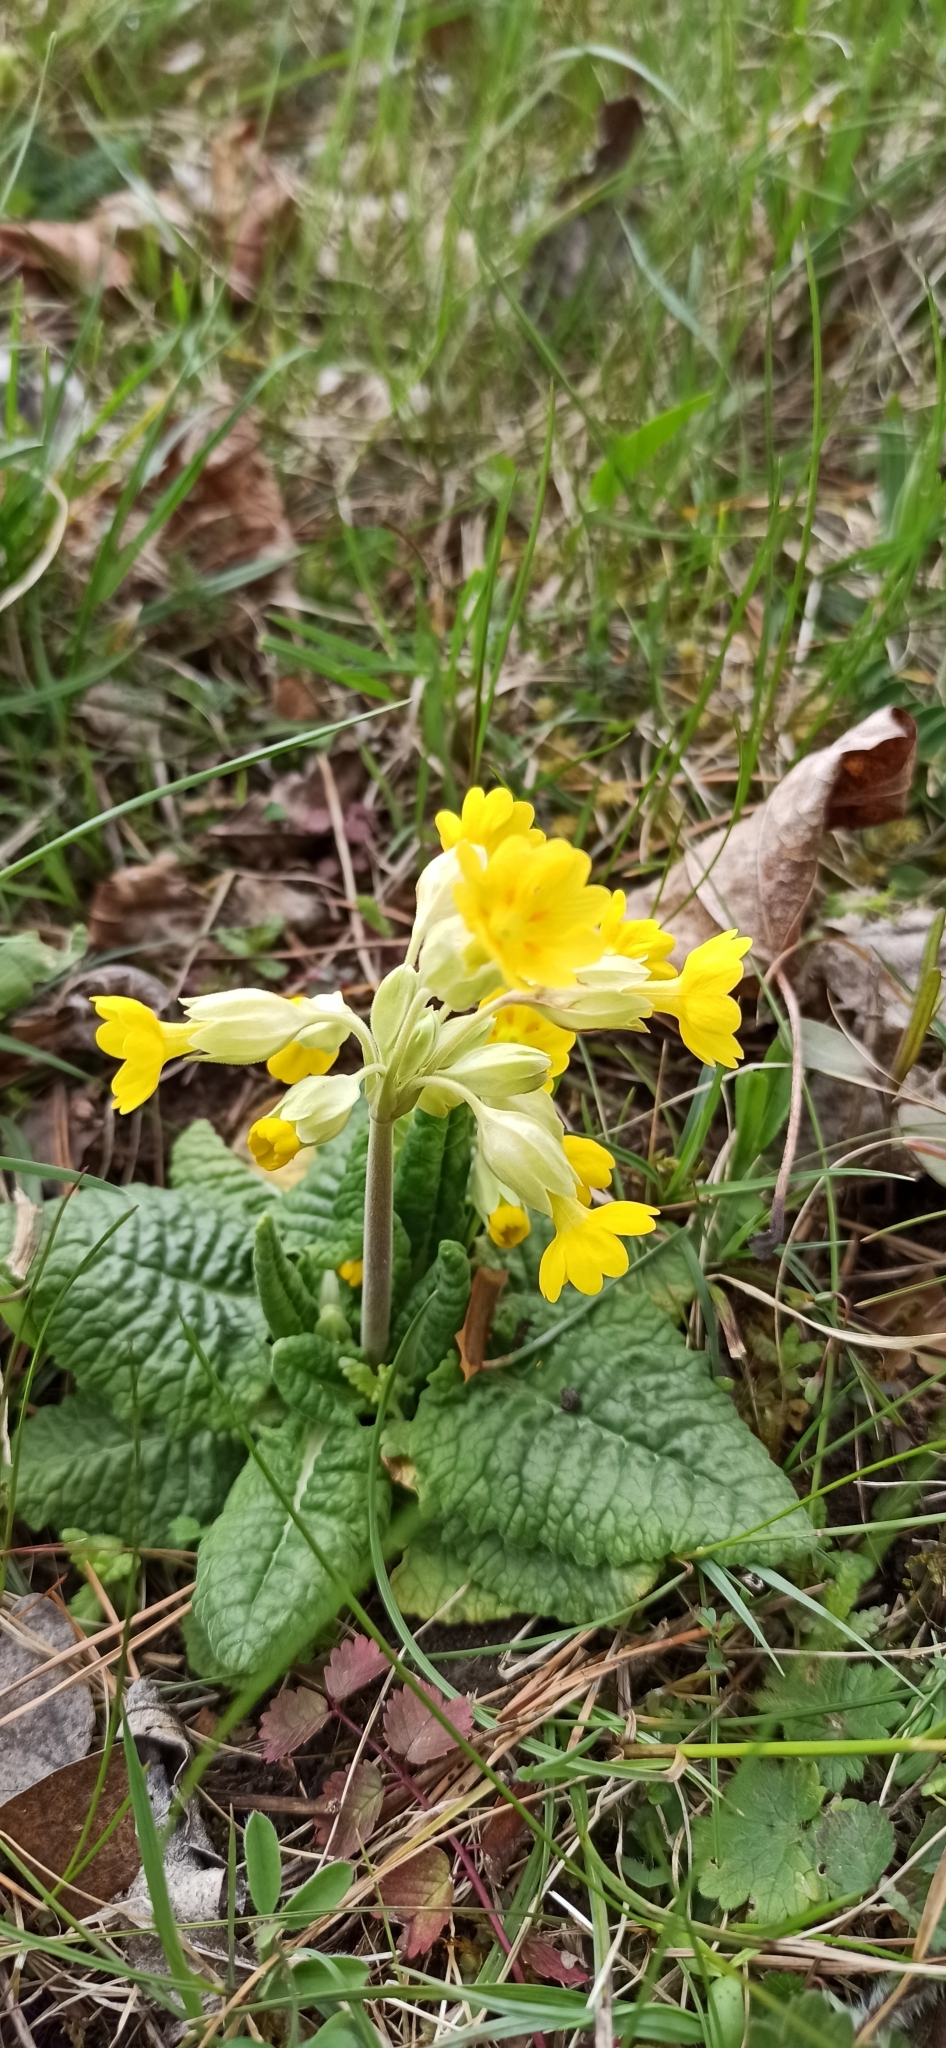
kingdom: Plantae
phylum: Tracheophyta
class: Magnoliopsida
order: Ericales
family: Primulaceae
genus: Primula
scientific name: Primula veris
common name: Cowslip
